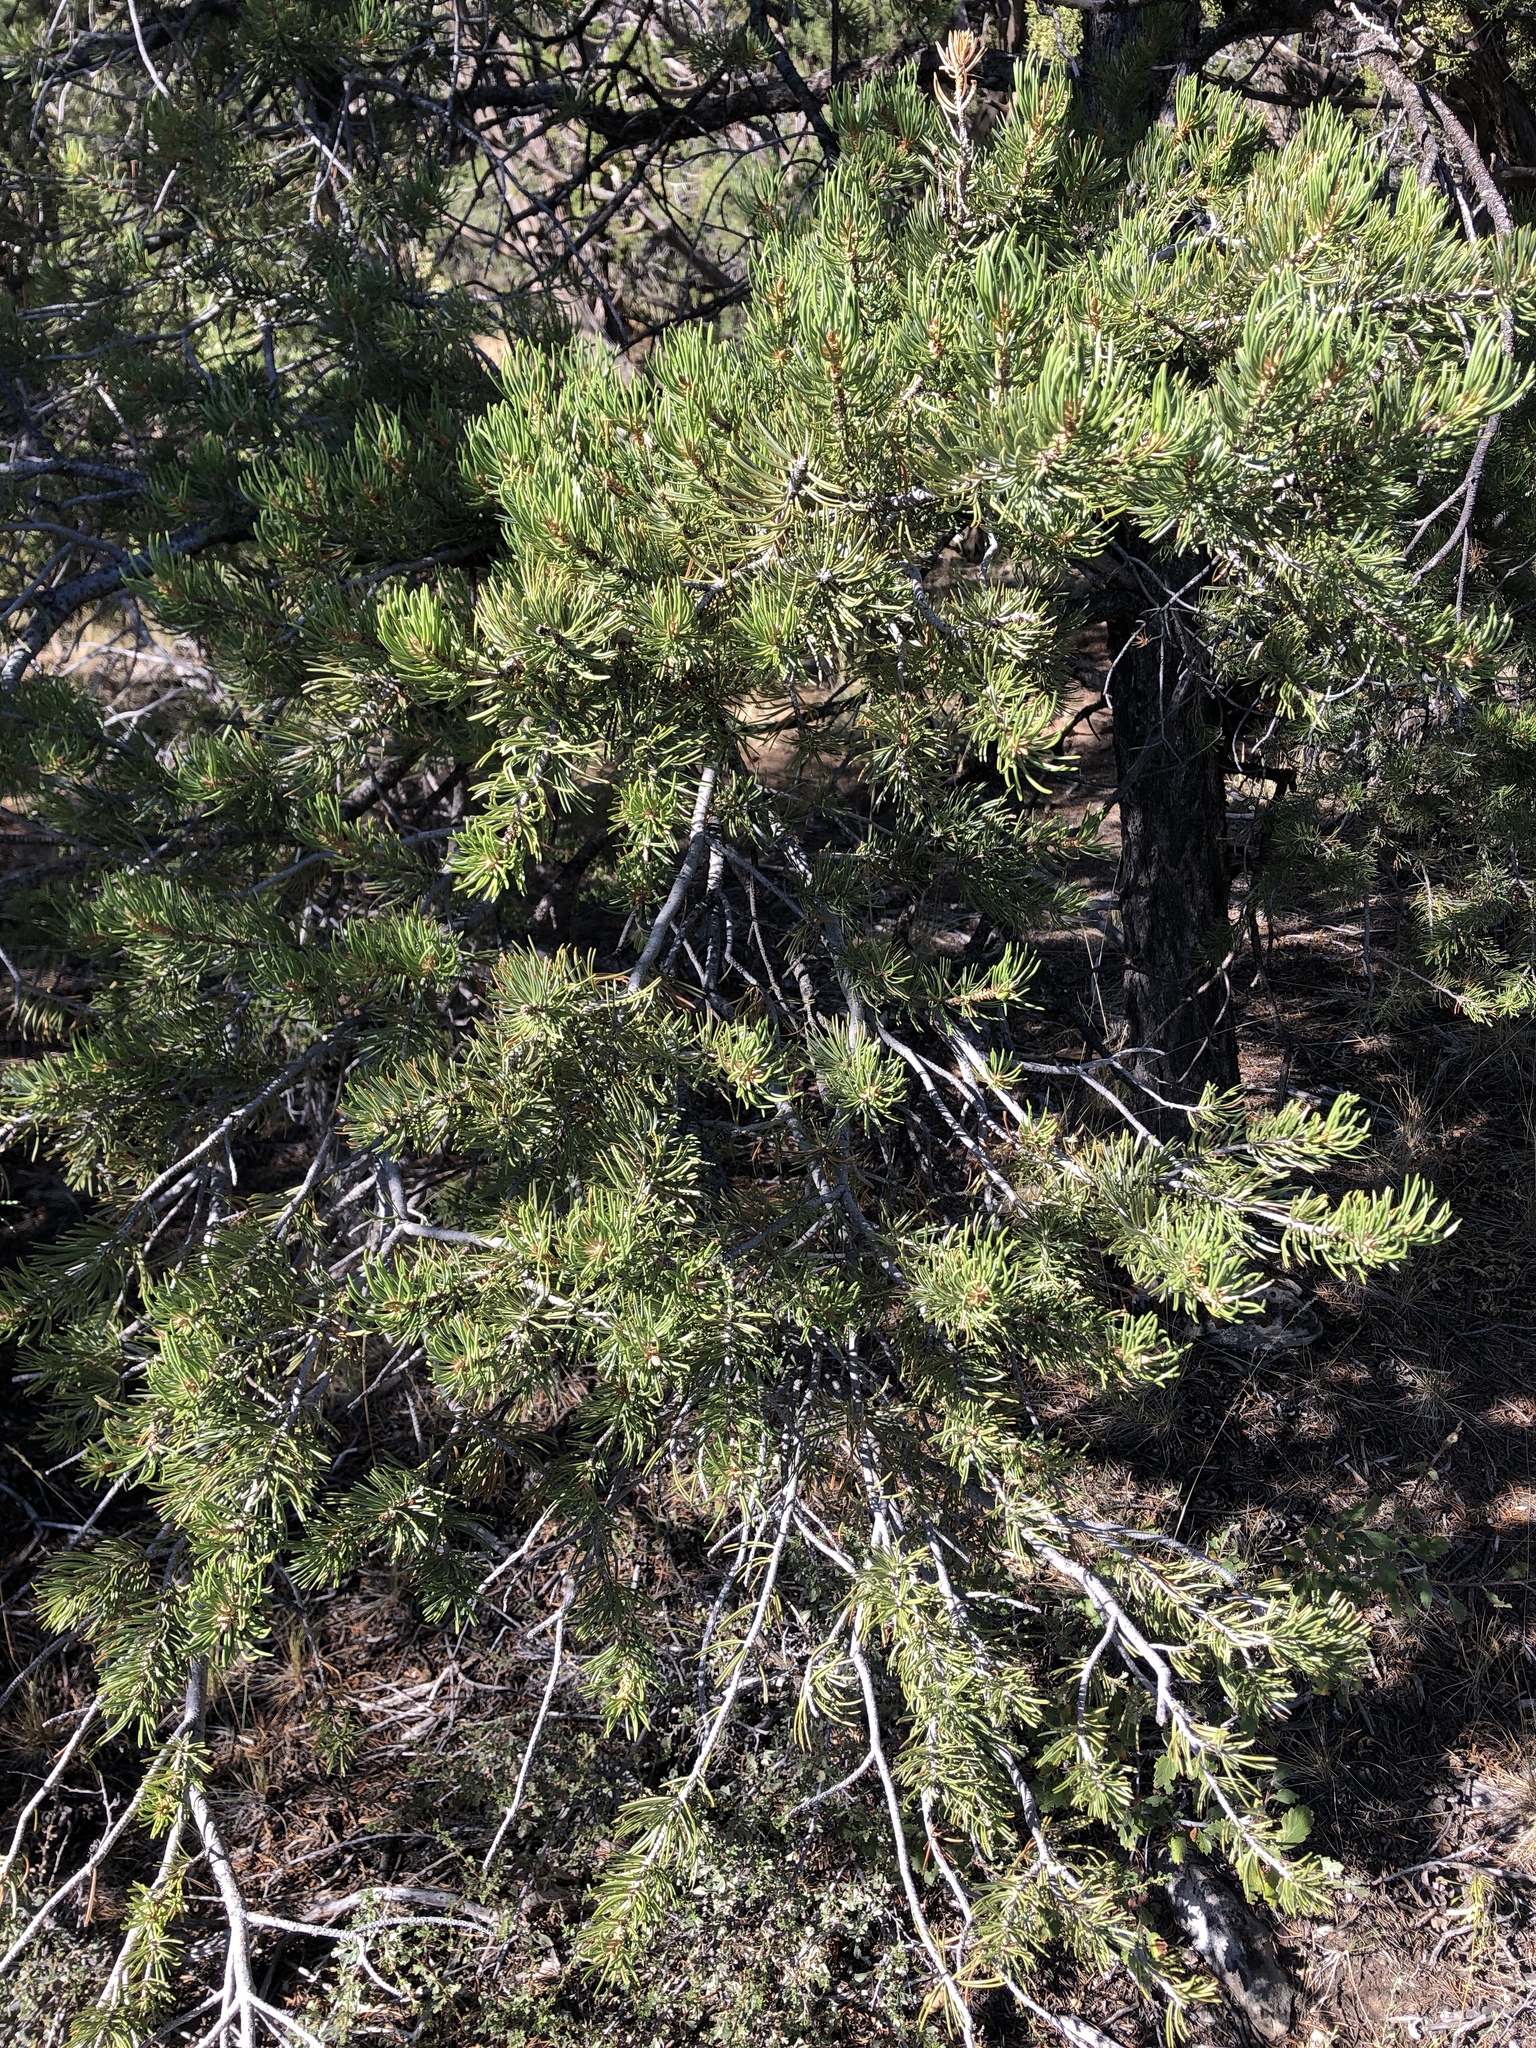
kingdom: Plantae
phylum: Tracheophyta
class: Pinopsida
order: Pinales
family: Pinaceae
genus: Pinus
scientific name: Pinus edulis
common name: Colorado pinyon
